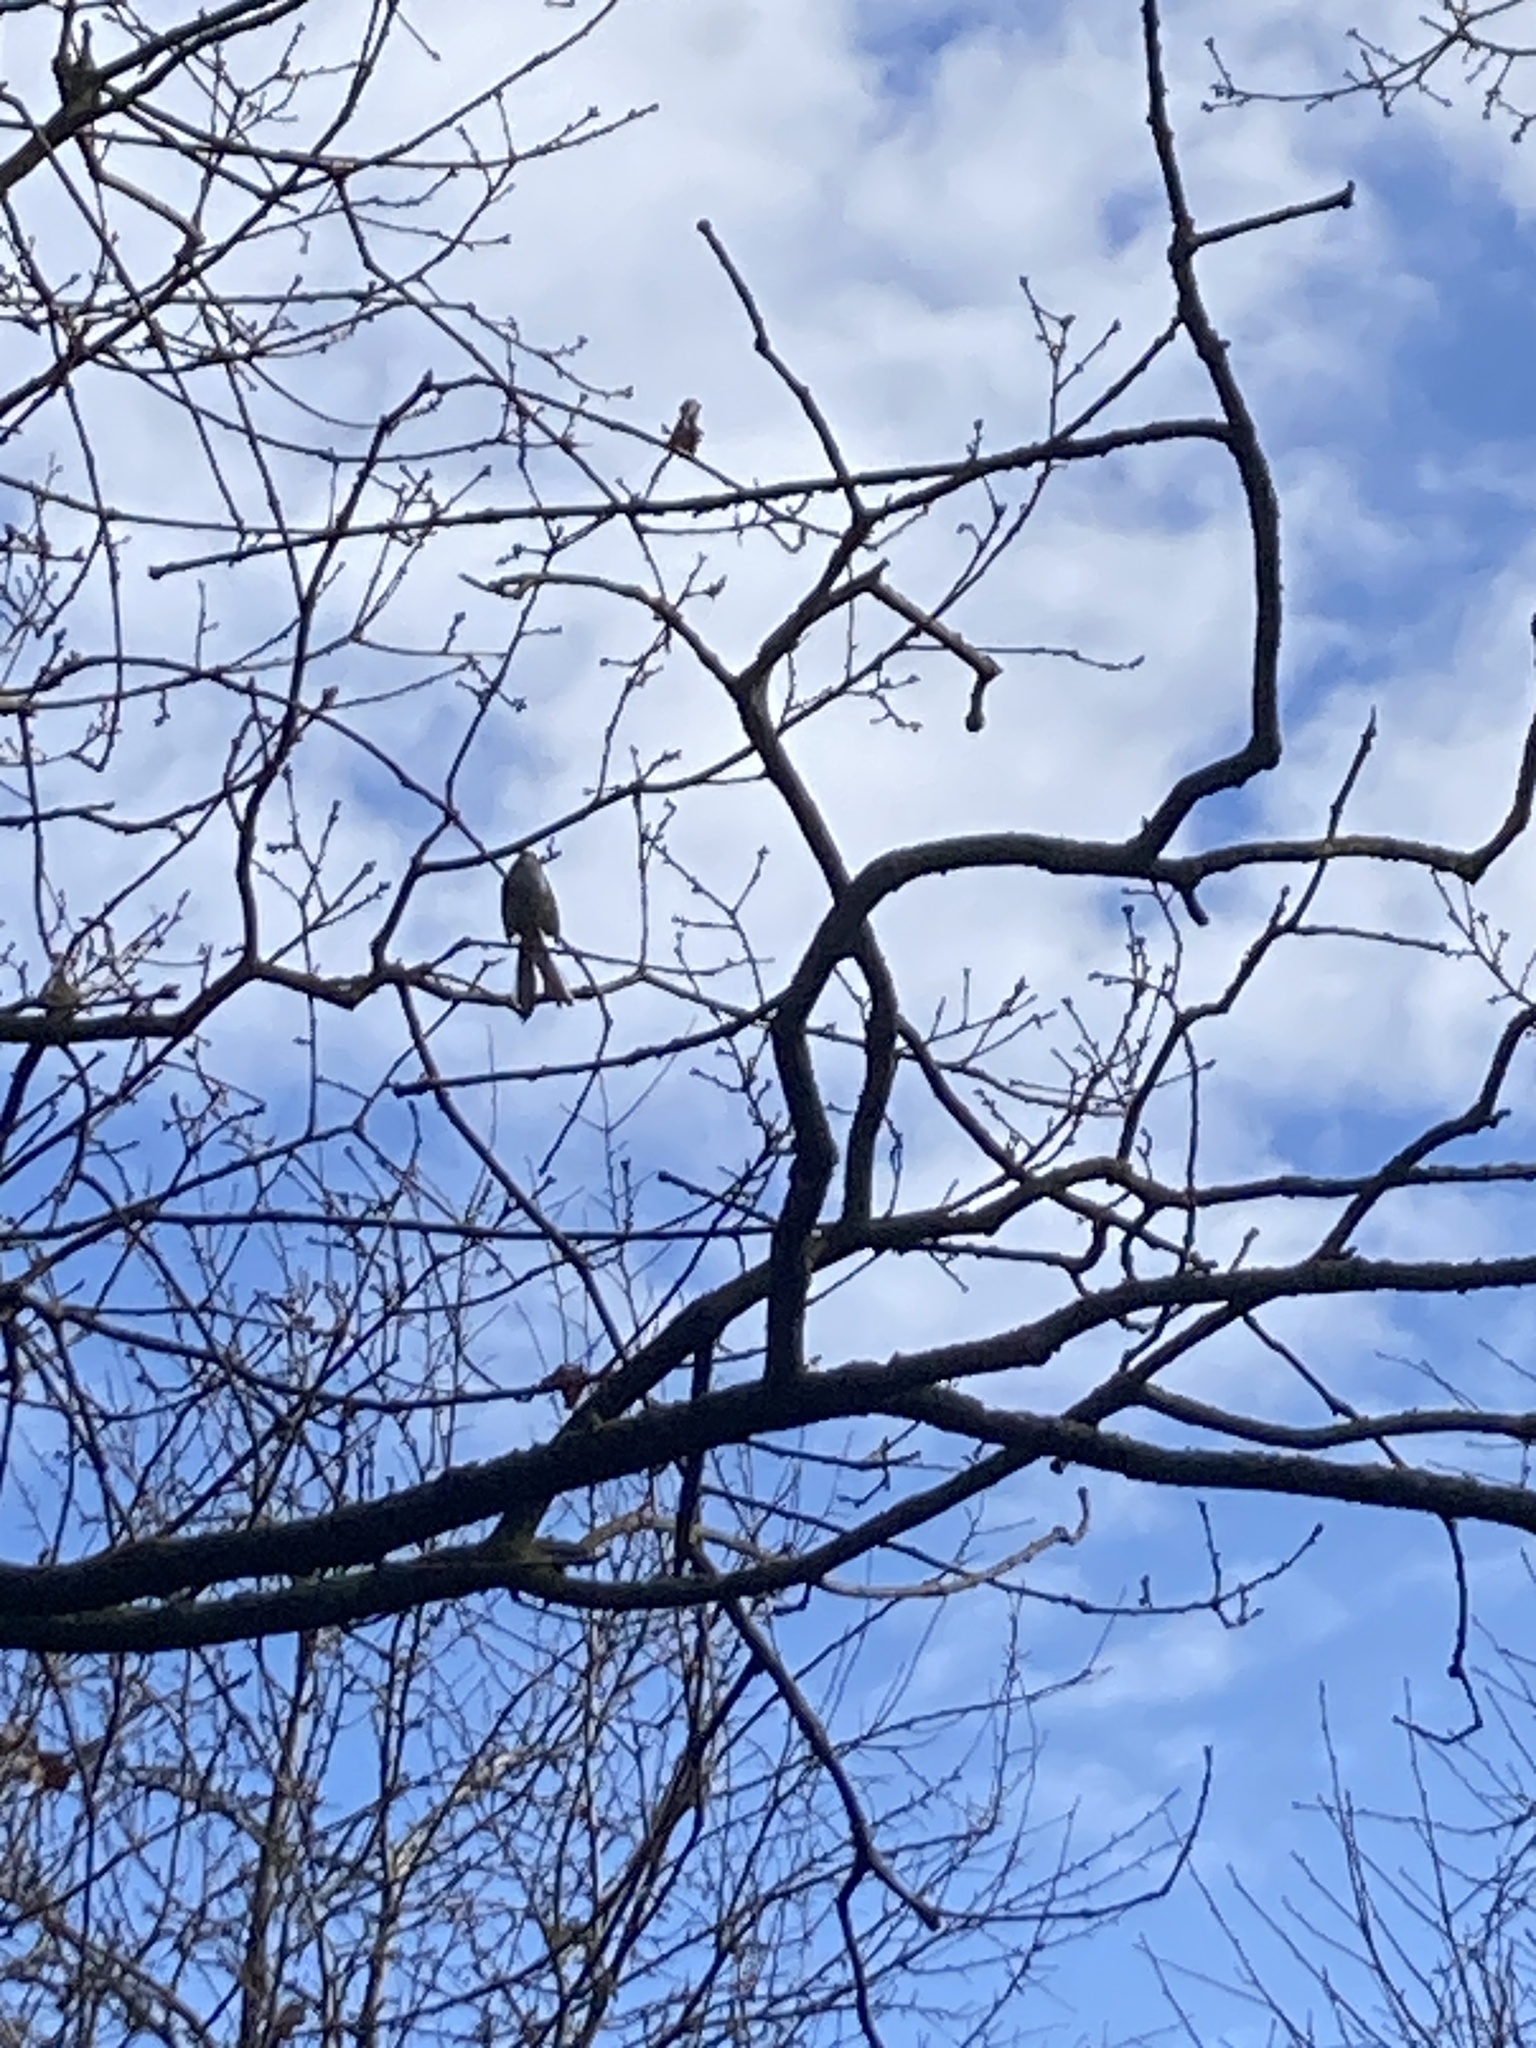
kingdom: Animalia
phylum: Chordata
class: Aves
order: Passeriformes
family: Aegithalidae
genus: Aegithalos
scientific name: Aegithalos caudatus
